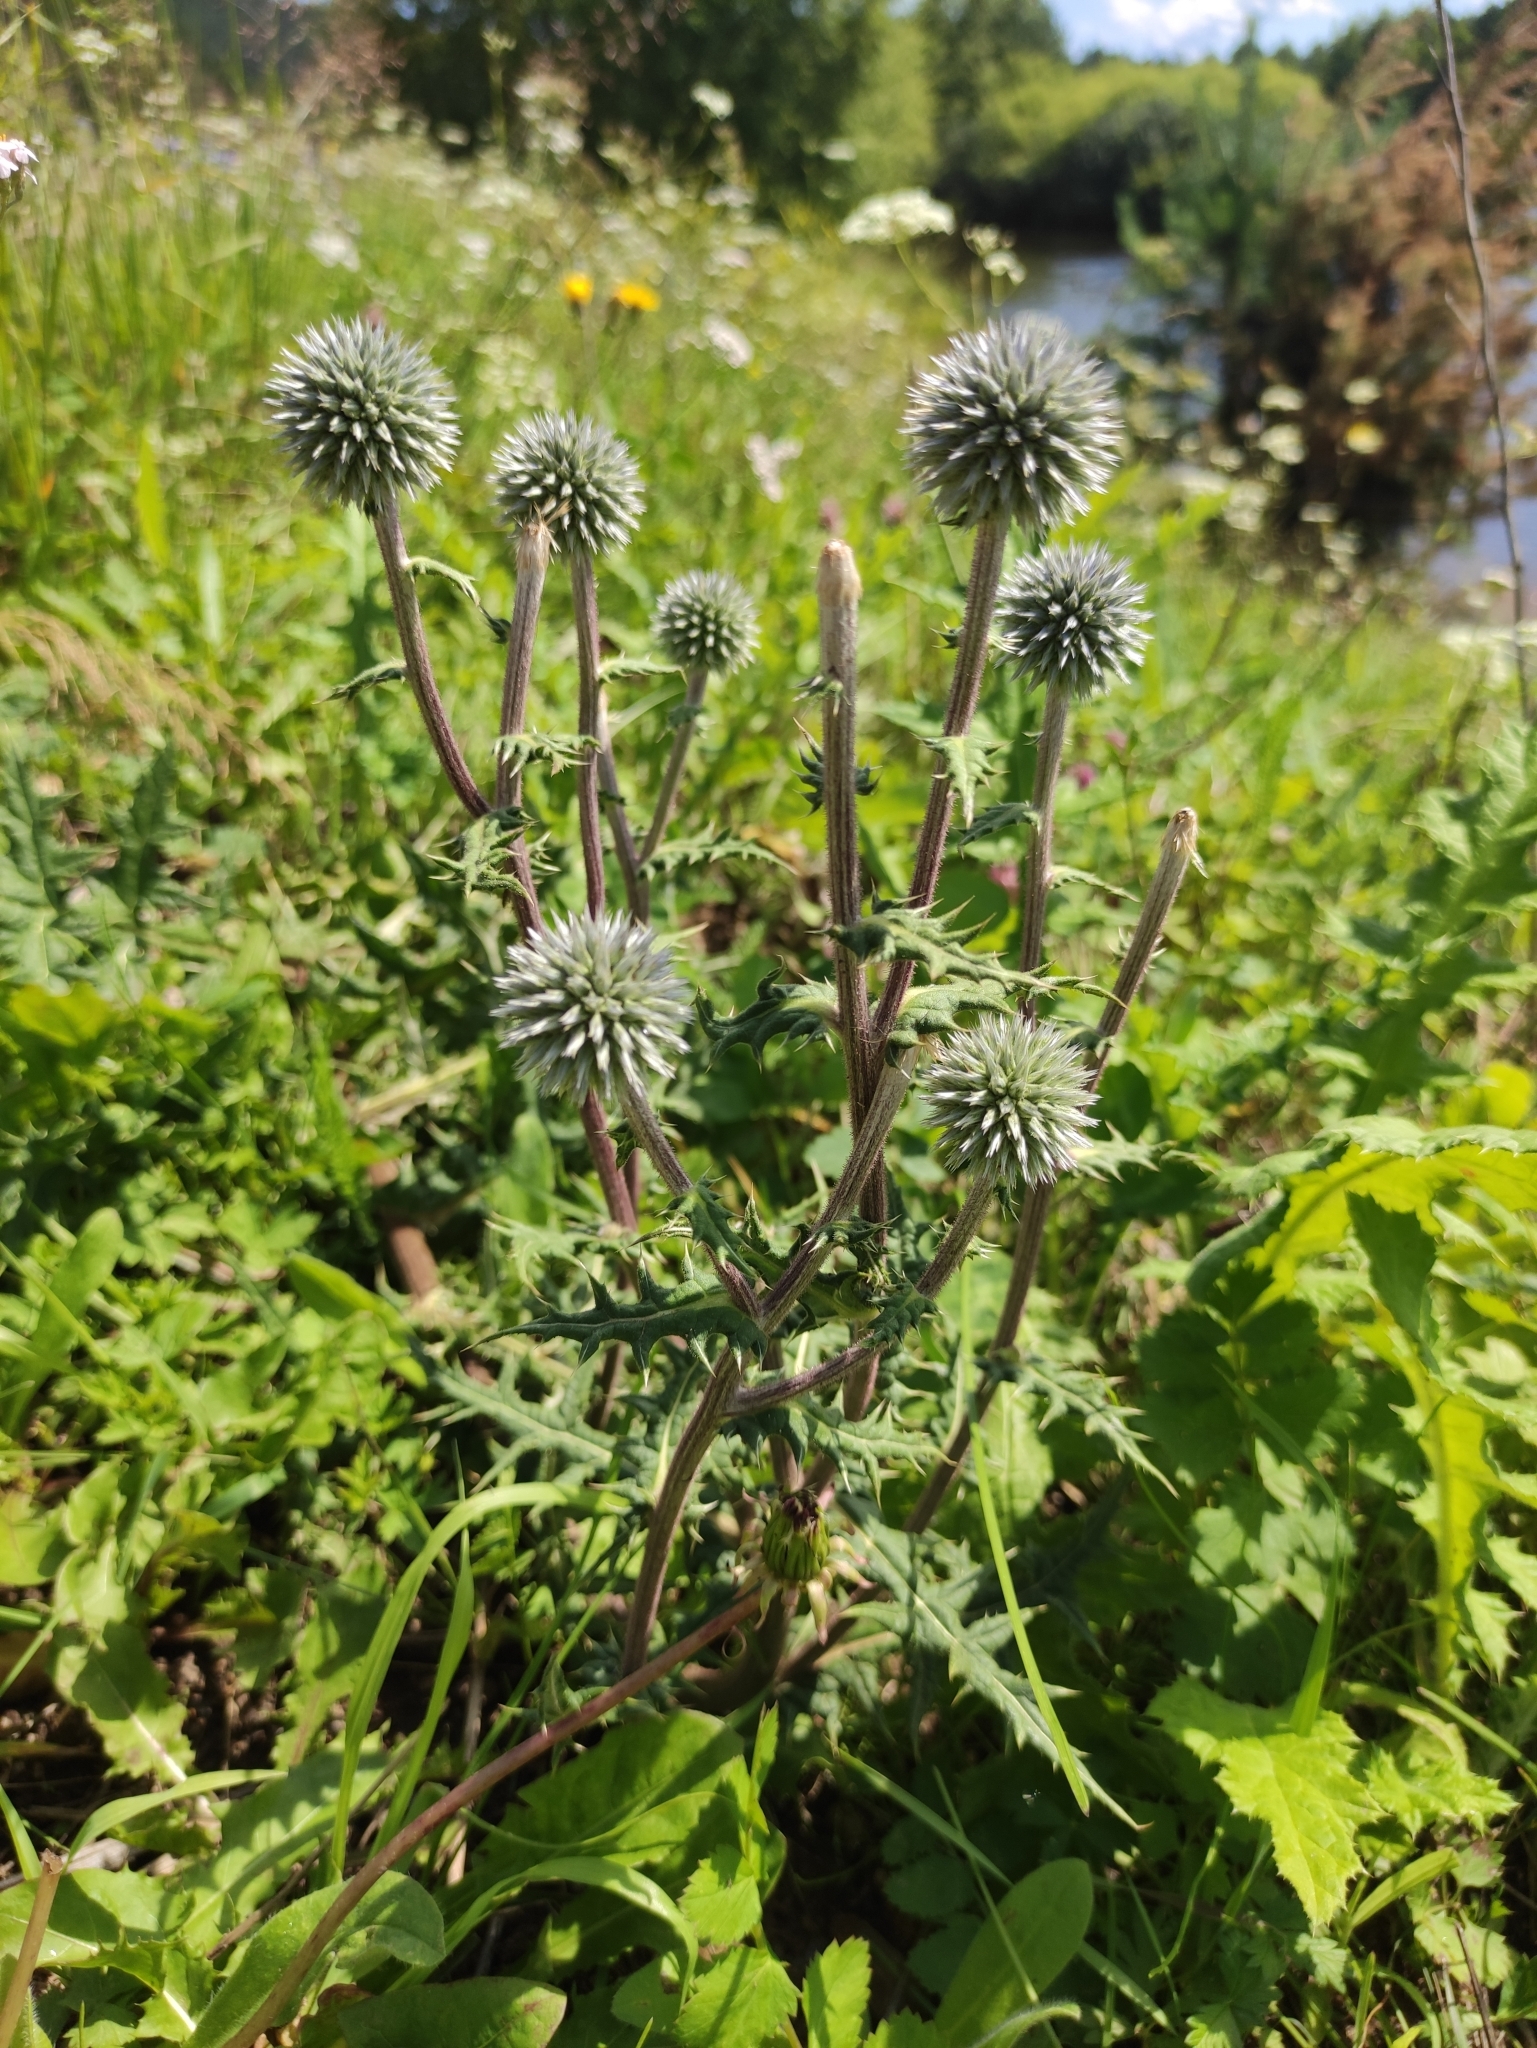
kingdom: Plantae
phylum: Tracheophyta
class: Magnoliopsida
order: Asterales
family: Asteraceae
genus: Echinops
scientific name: Echinops sphaerocephalus
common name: Glandular globe-thistle
